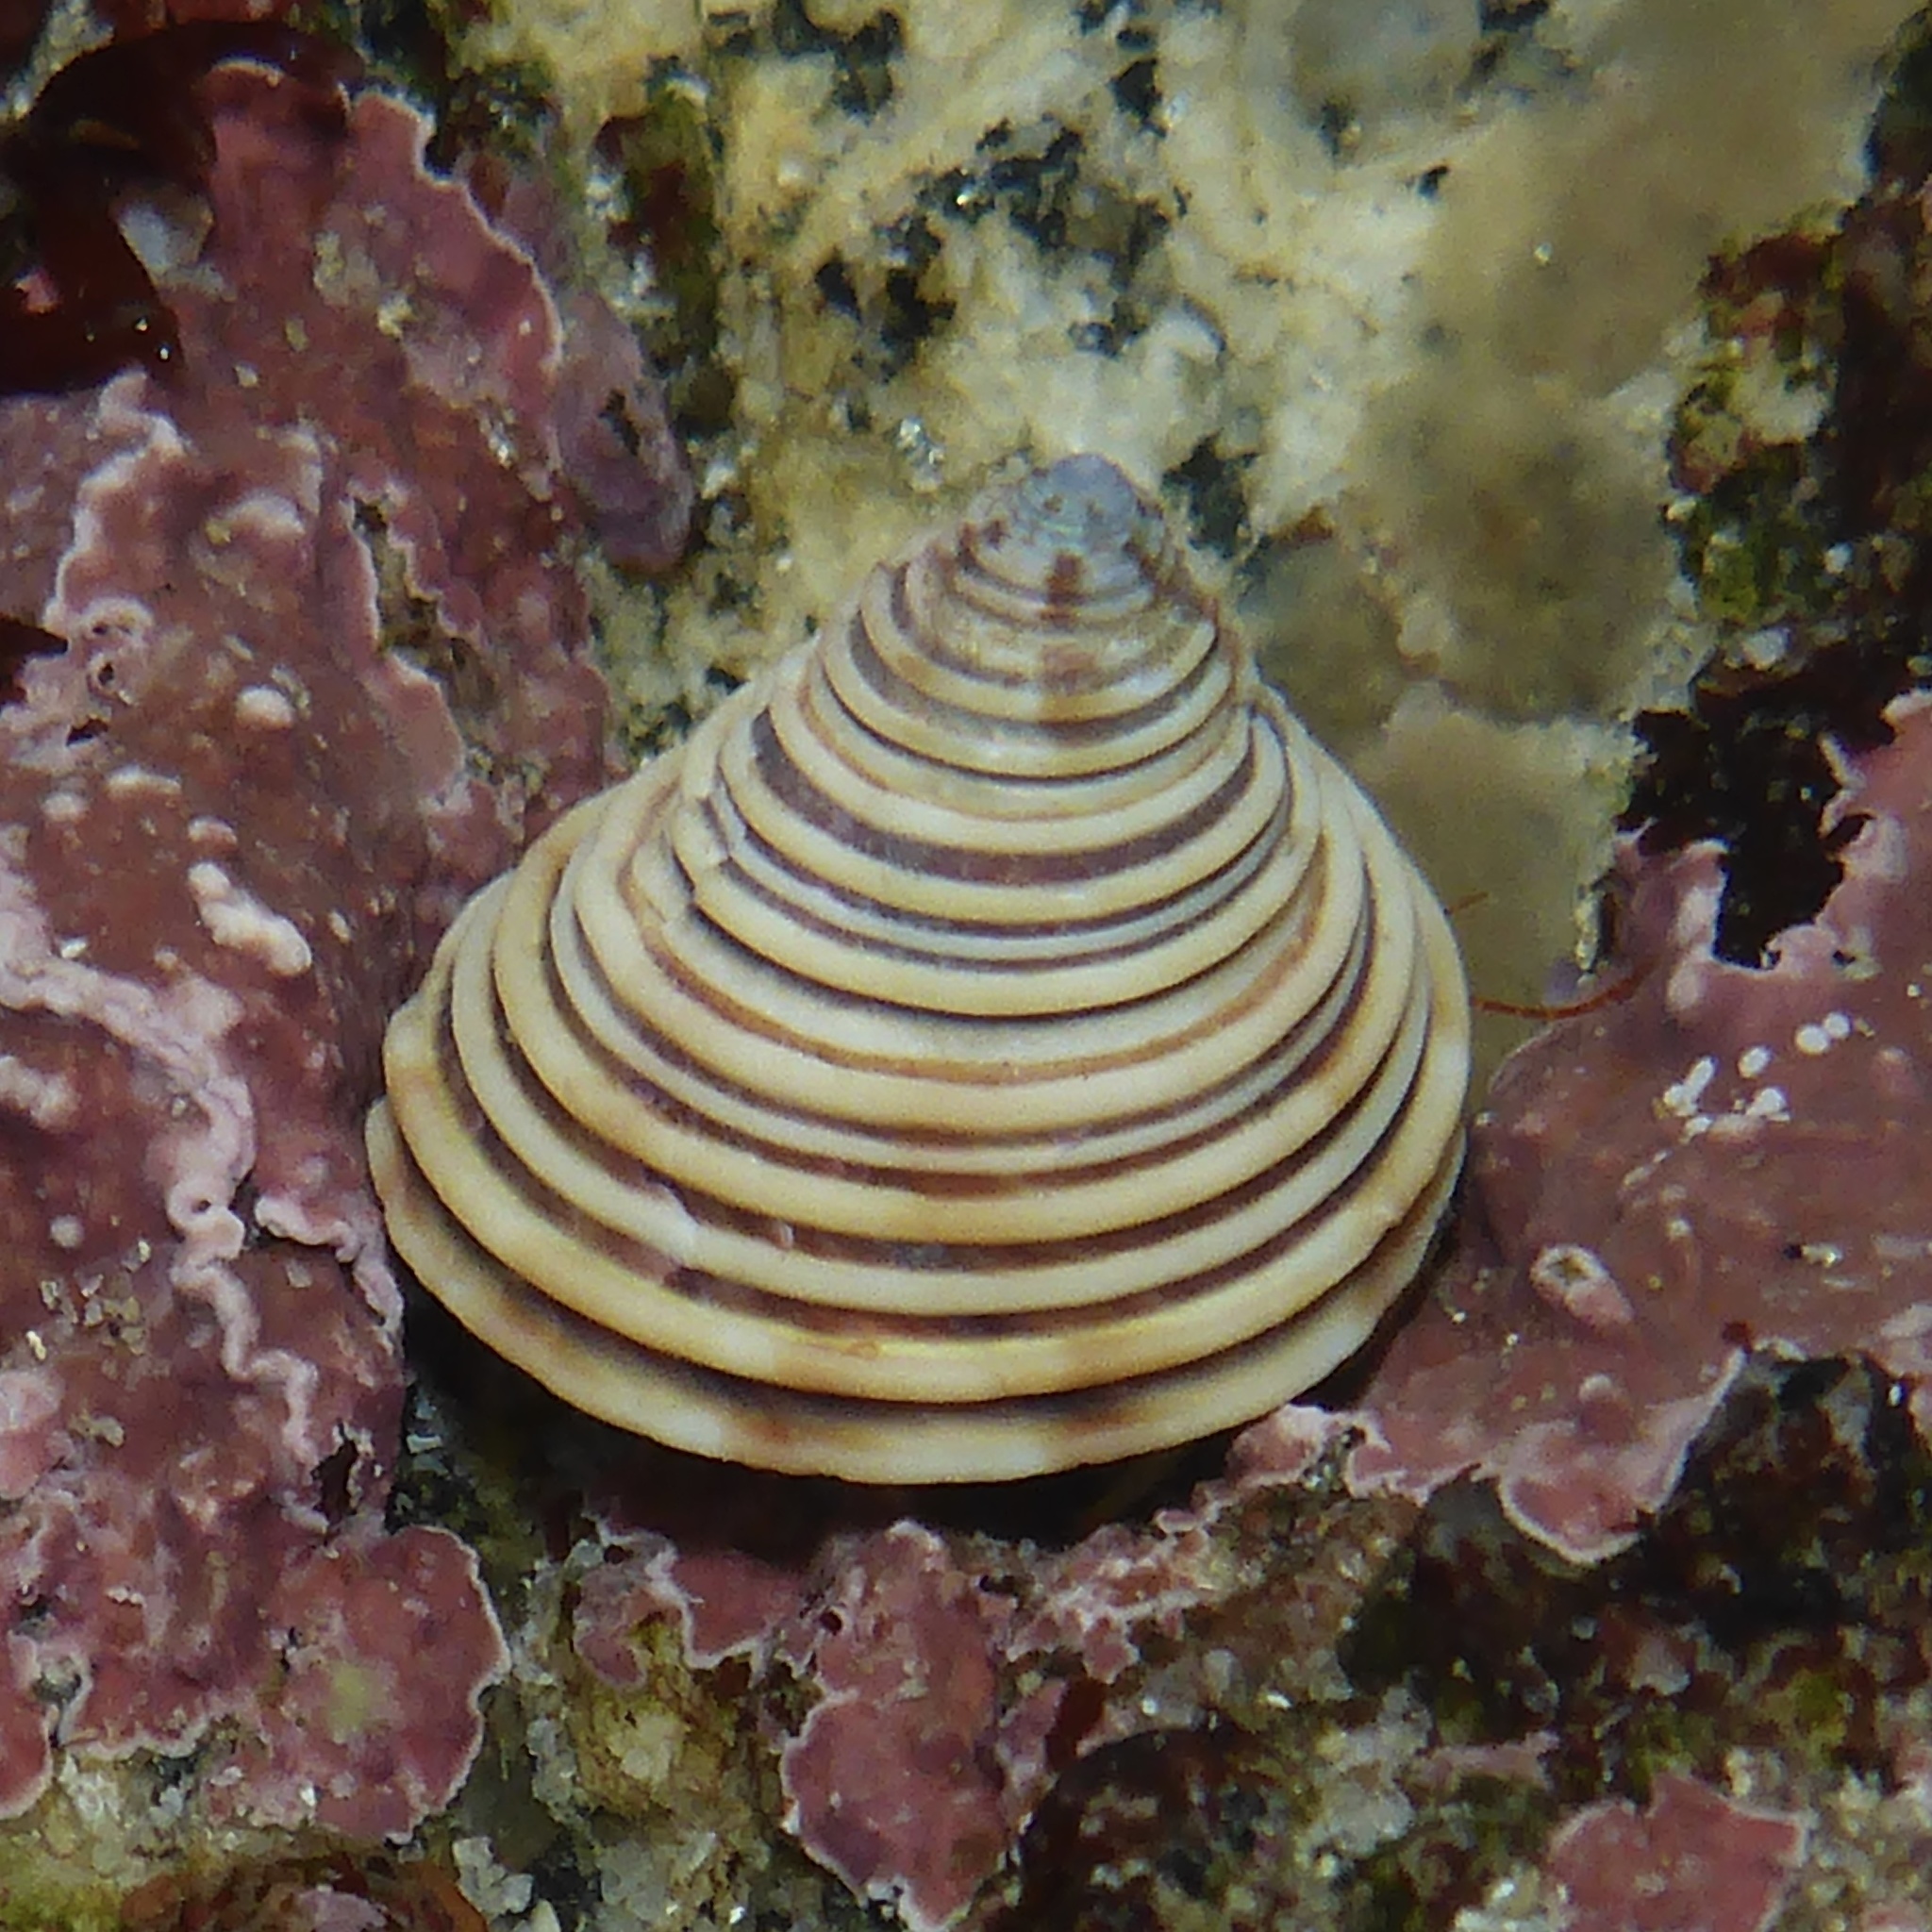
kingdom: Animalia
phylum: Mollusca
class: Gastropoda
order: Trochida
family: Calliostomatidae
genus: Calliostoma
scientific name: Calliostoma canaliculatum
